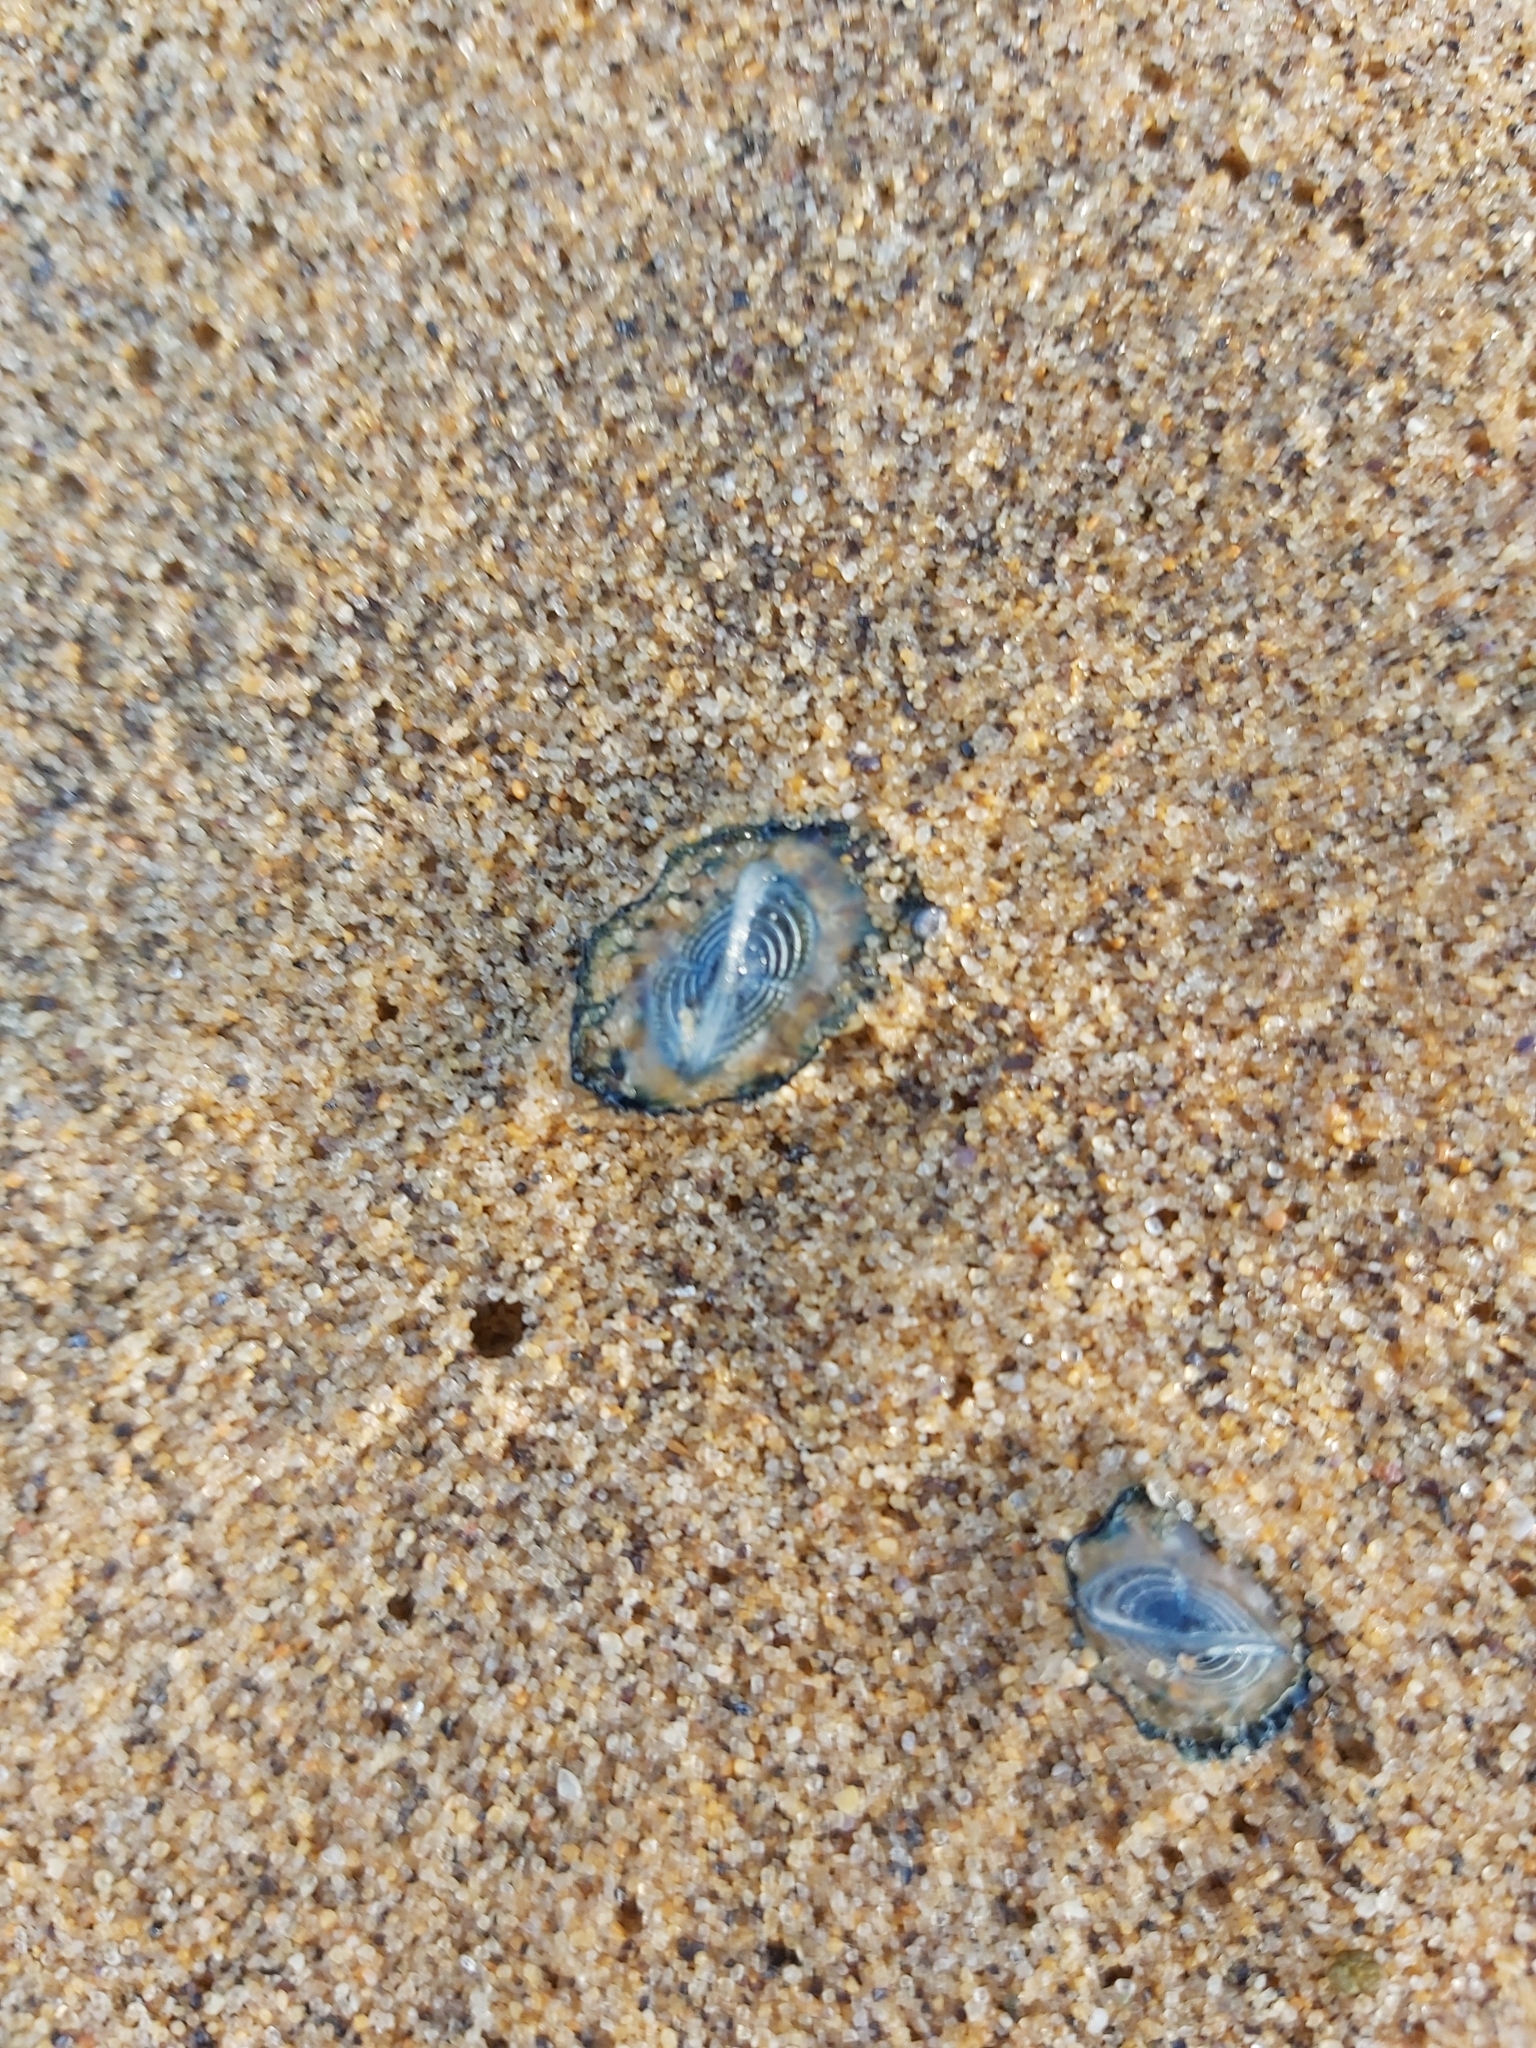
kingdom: Animalia
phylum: Cnidaria
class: Hydrozoa
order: Anthoathecata
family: Porpitidae
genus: Velella
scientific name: Velella velella
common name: By-the-wind-sailor
